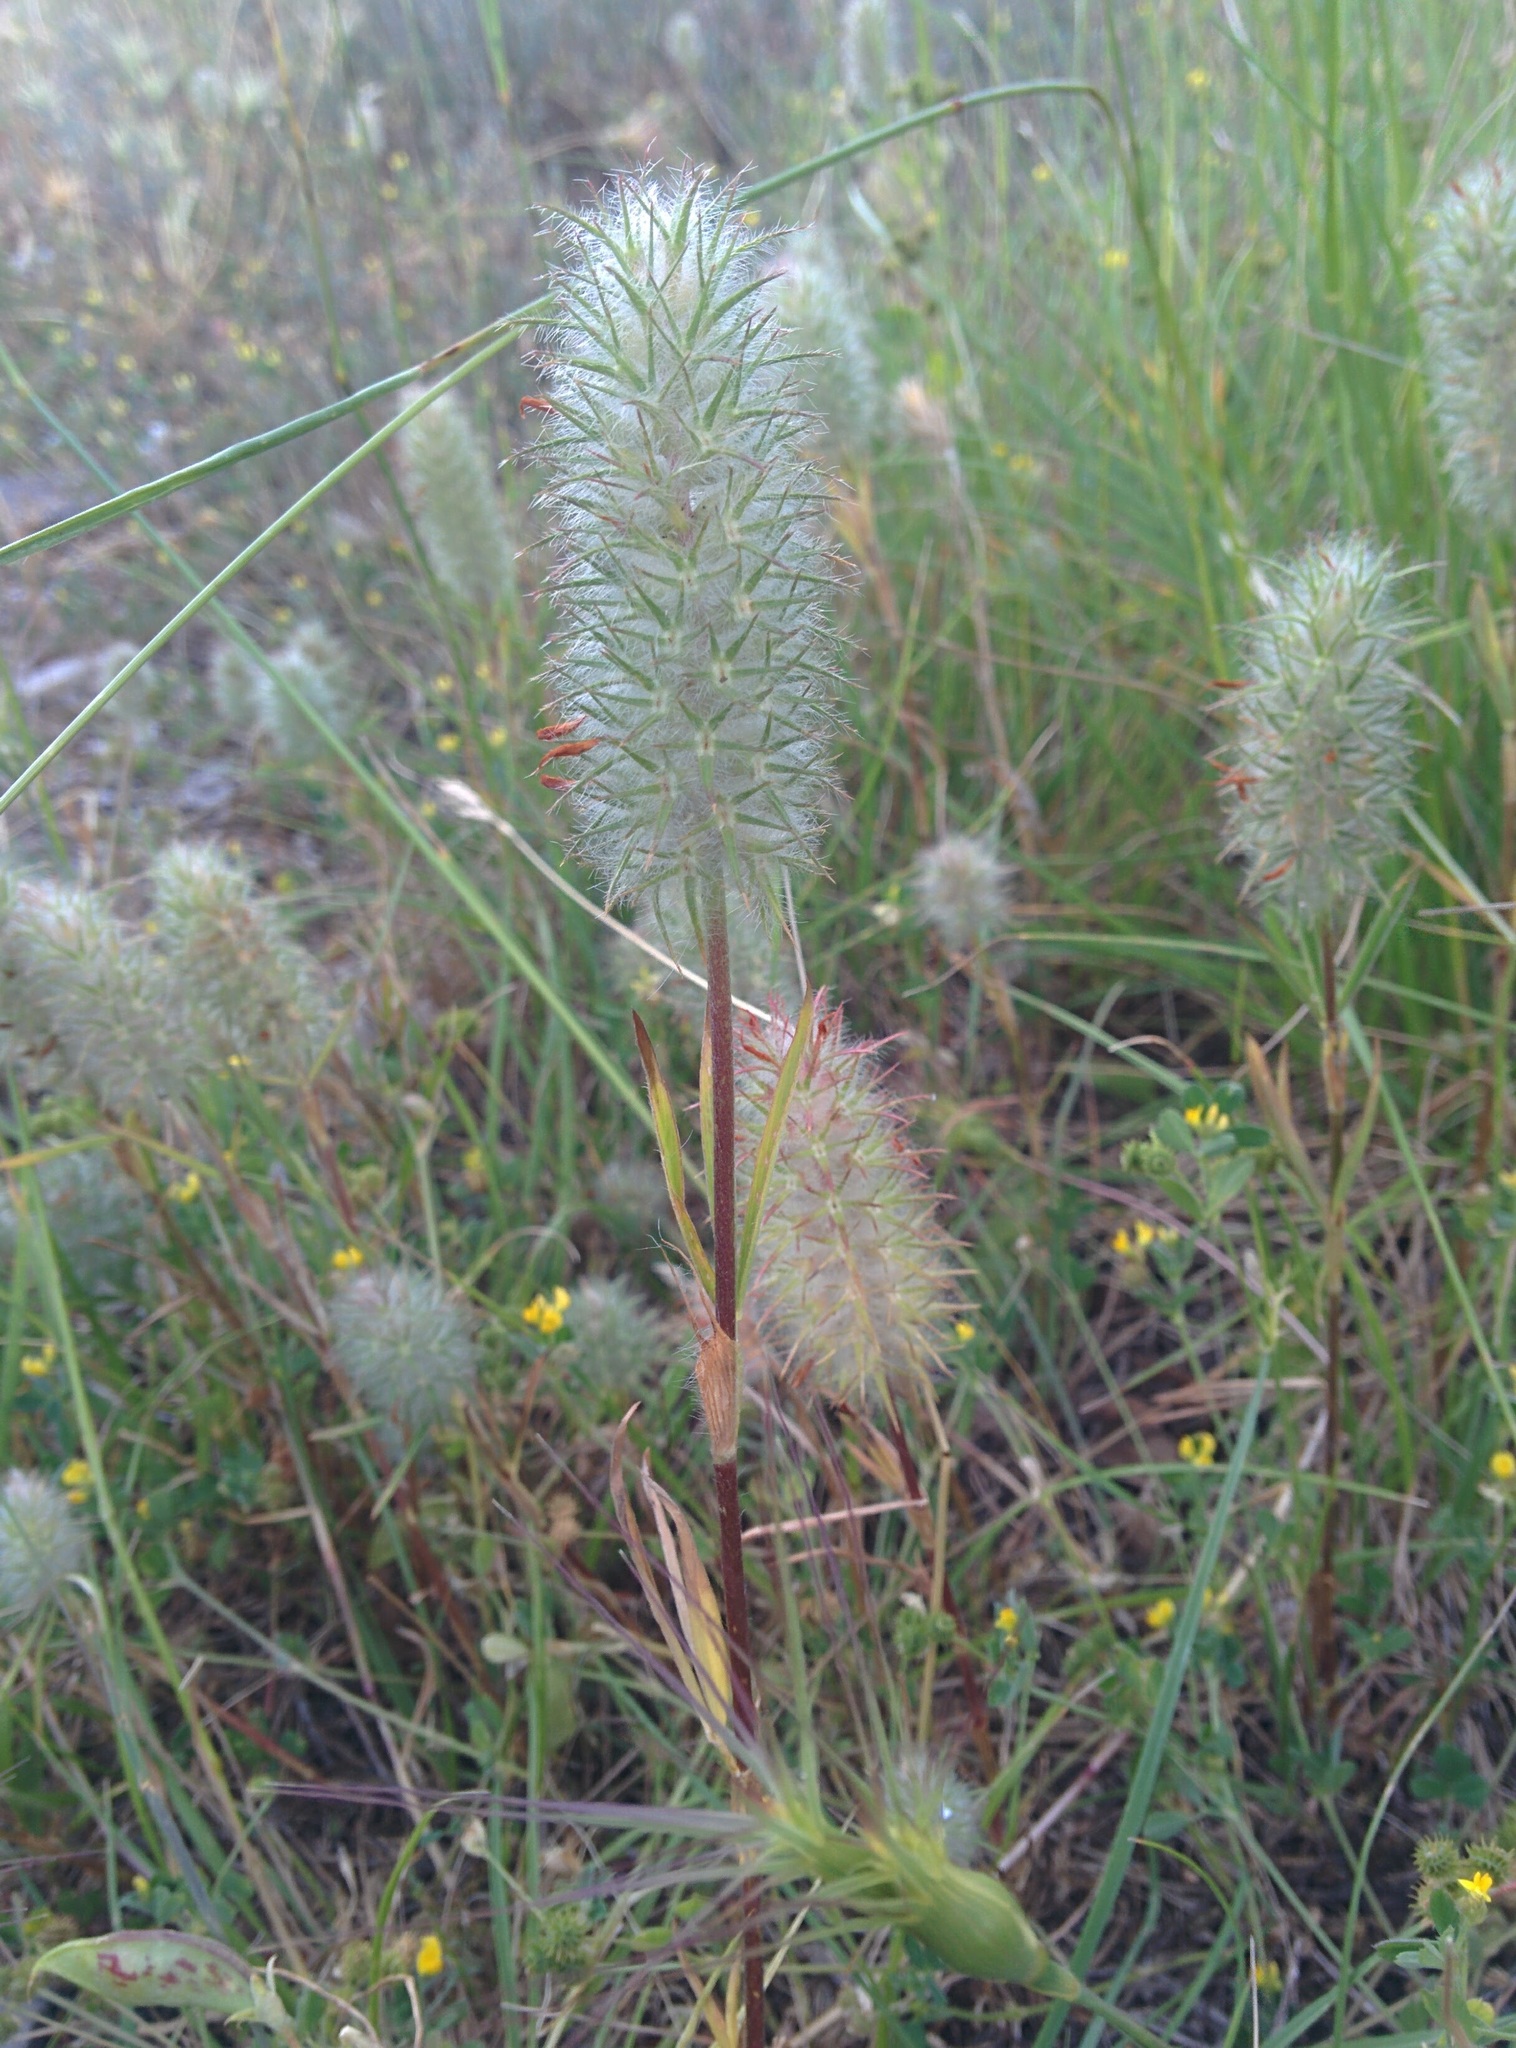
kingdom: Plantae
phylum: Tracheophyta
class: Magnoliopsida
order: Fabales
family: Fabaceae
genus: Trifolium
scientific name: Trifolium angustifolium
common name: Narrow clover
